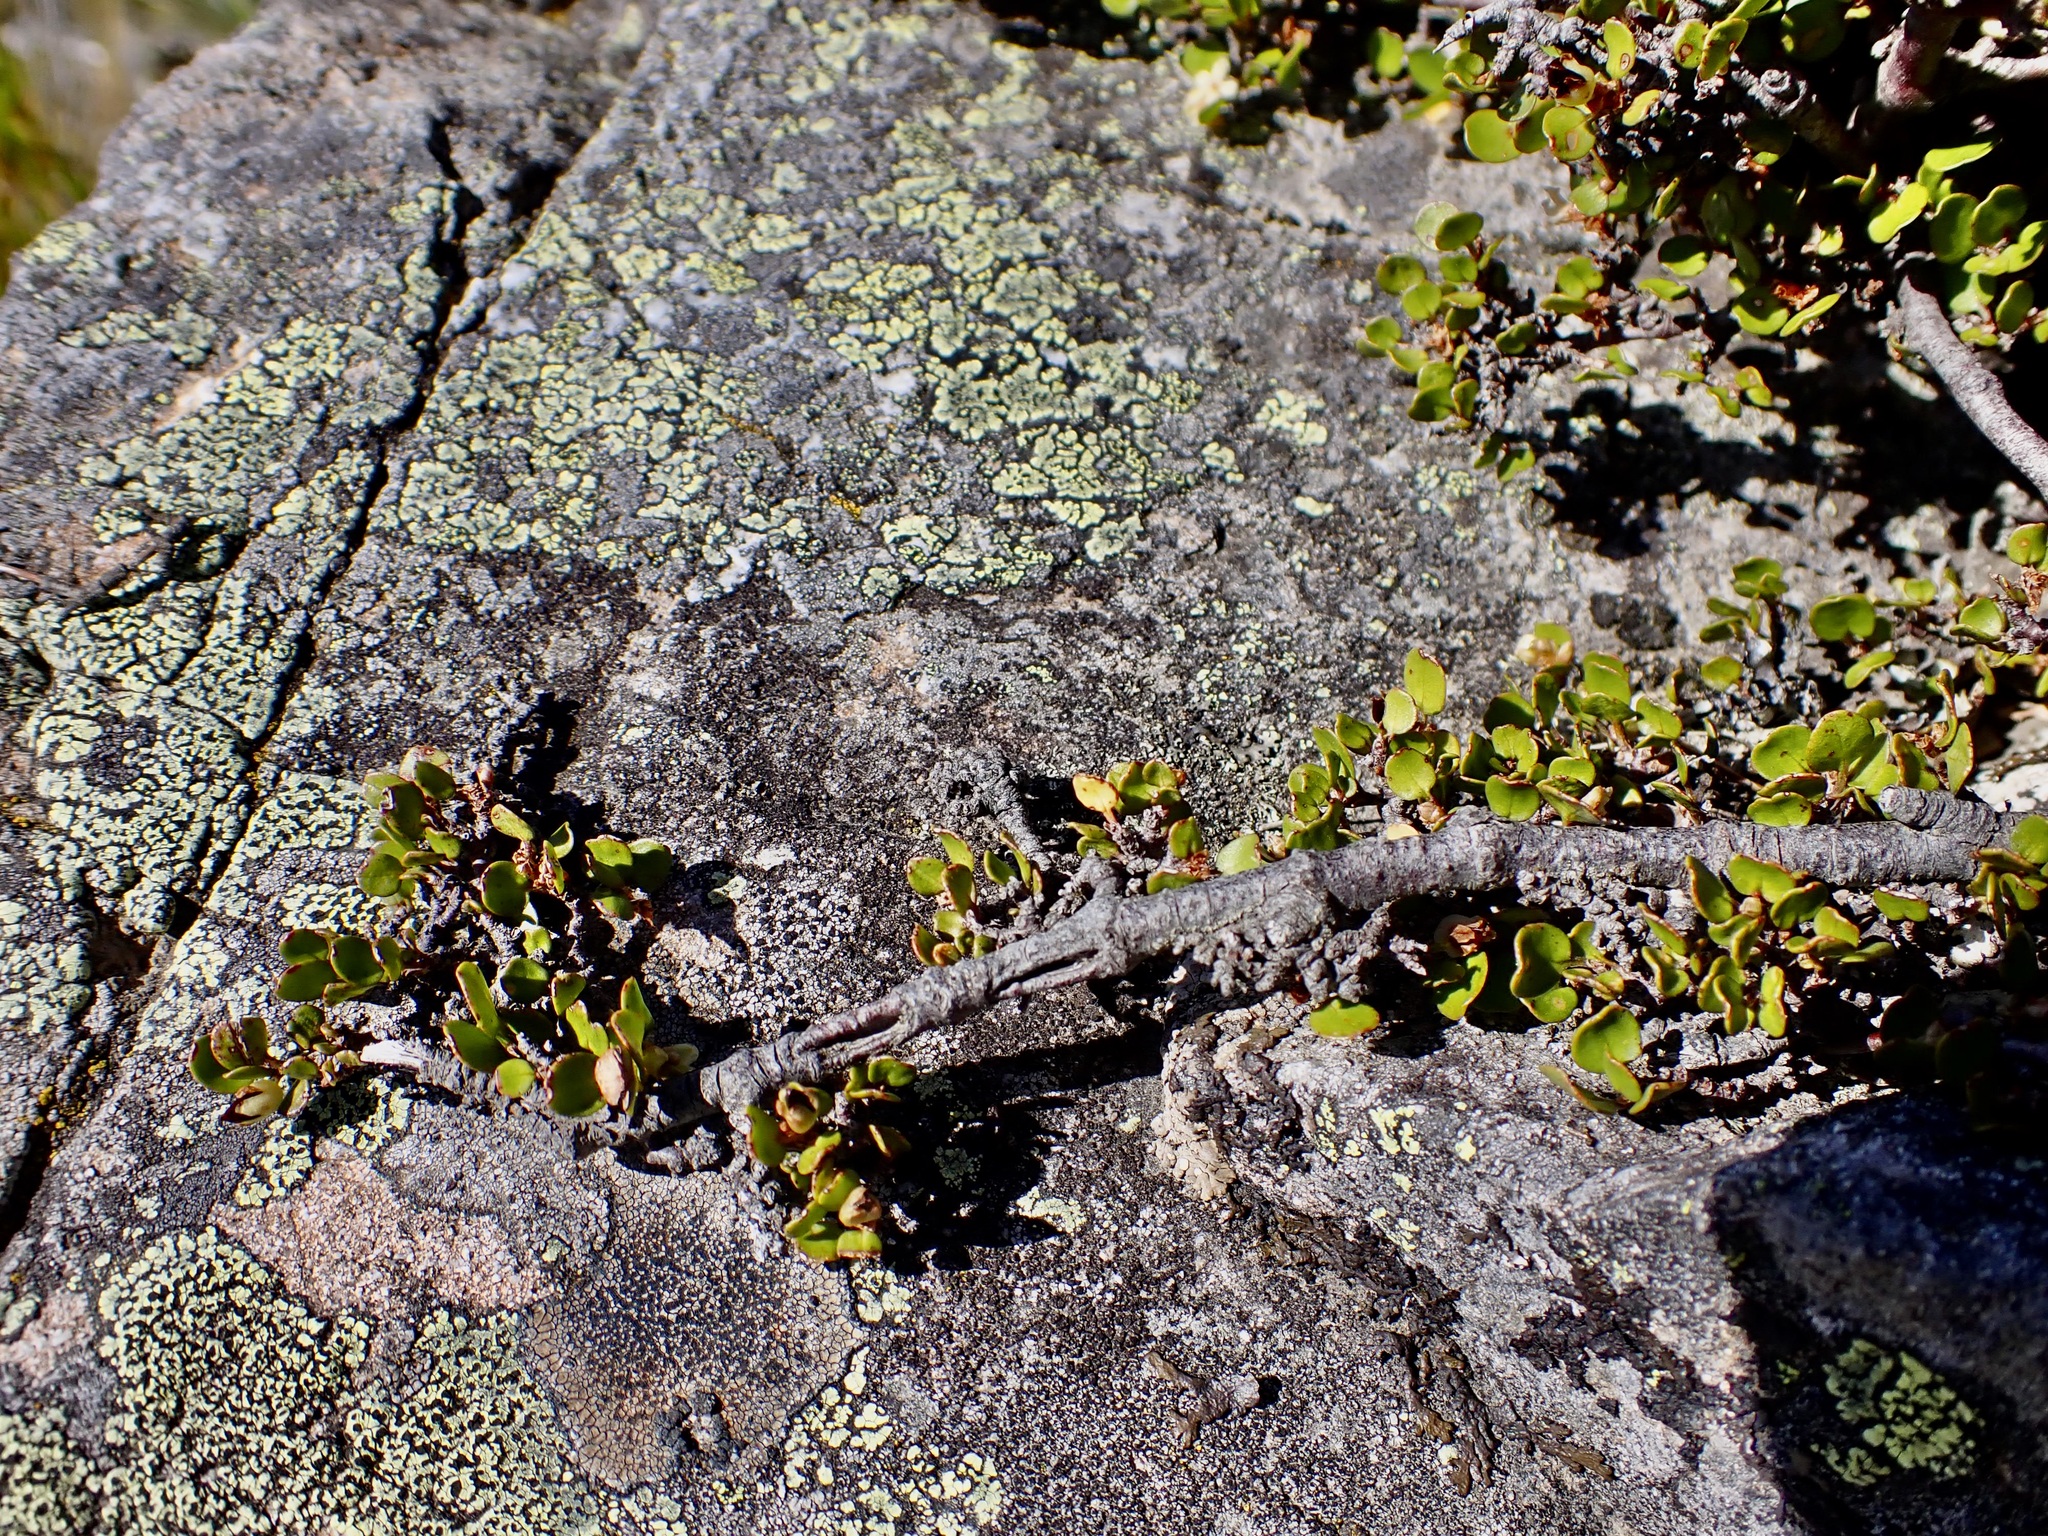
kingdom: Plantae
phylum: Tracheophyta
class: Magnoliopsida
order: Caryophyllales
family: Polygonaceae
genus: Muehlenbeckia
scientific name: Muehlenbeckia axillaris
